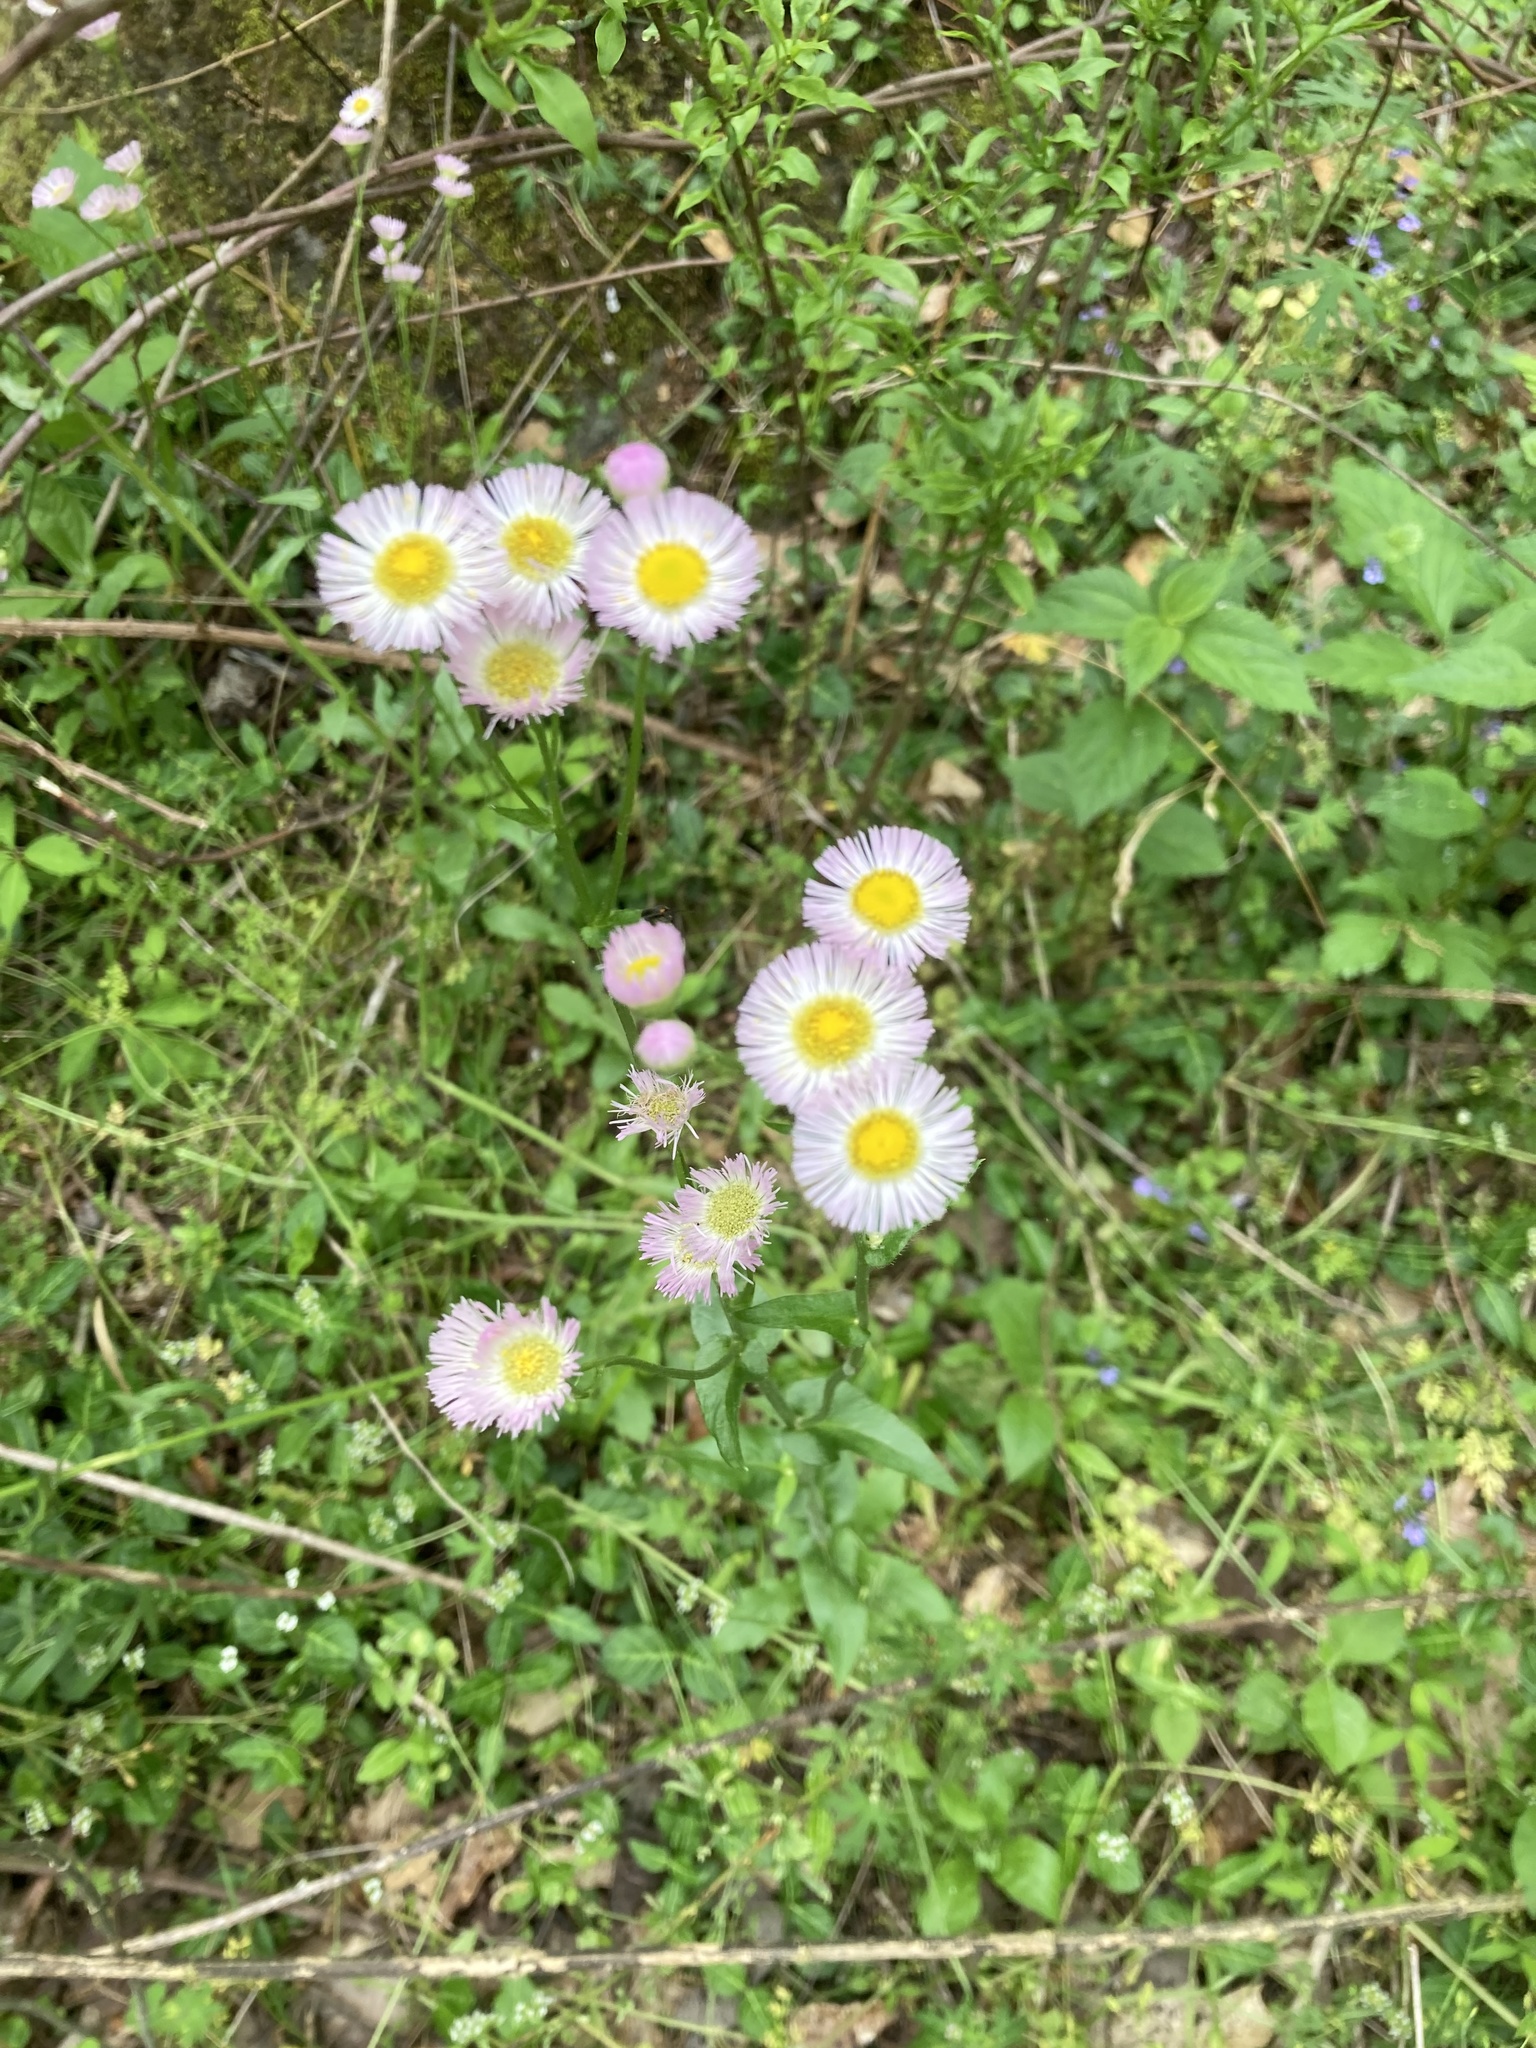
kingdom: Plantae
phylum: Tracheophyta
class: Magnoliopsida
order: Asterales
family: Asteraceae
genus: Erigeron
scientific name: Erigeron philadelphicus
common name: Robin's-plantain
